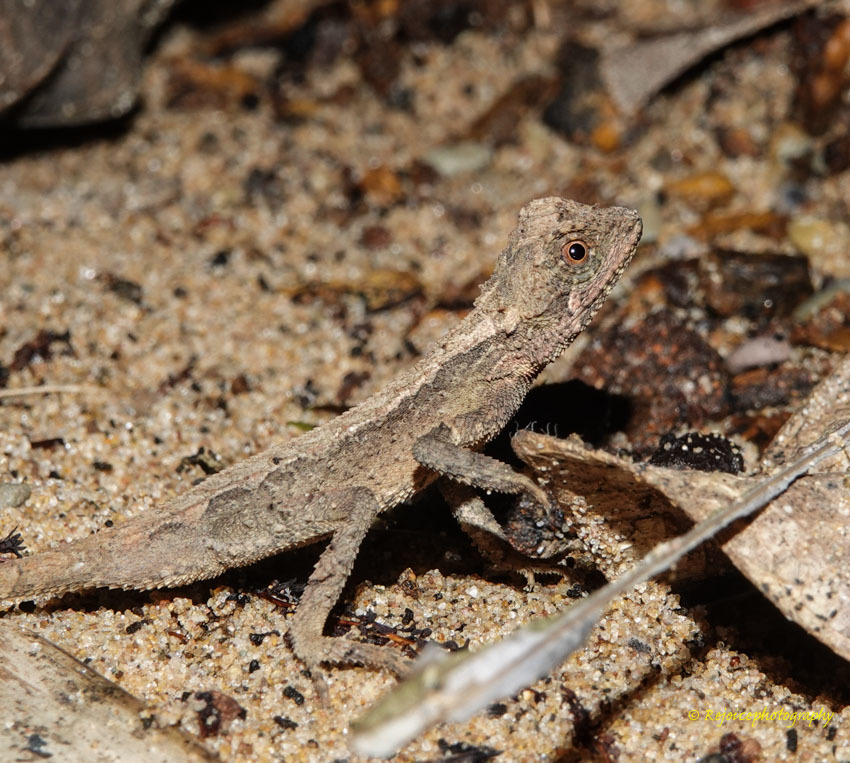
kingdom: Animalia
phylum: Chordata
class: Squamata
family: Agamidae
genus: Cristidorsa
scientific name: Cristidorsa planidorsata
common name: Smooth-scaled mountain lizard
